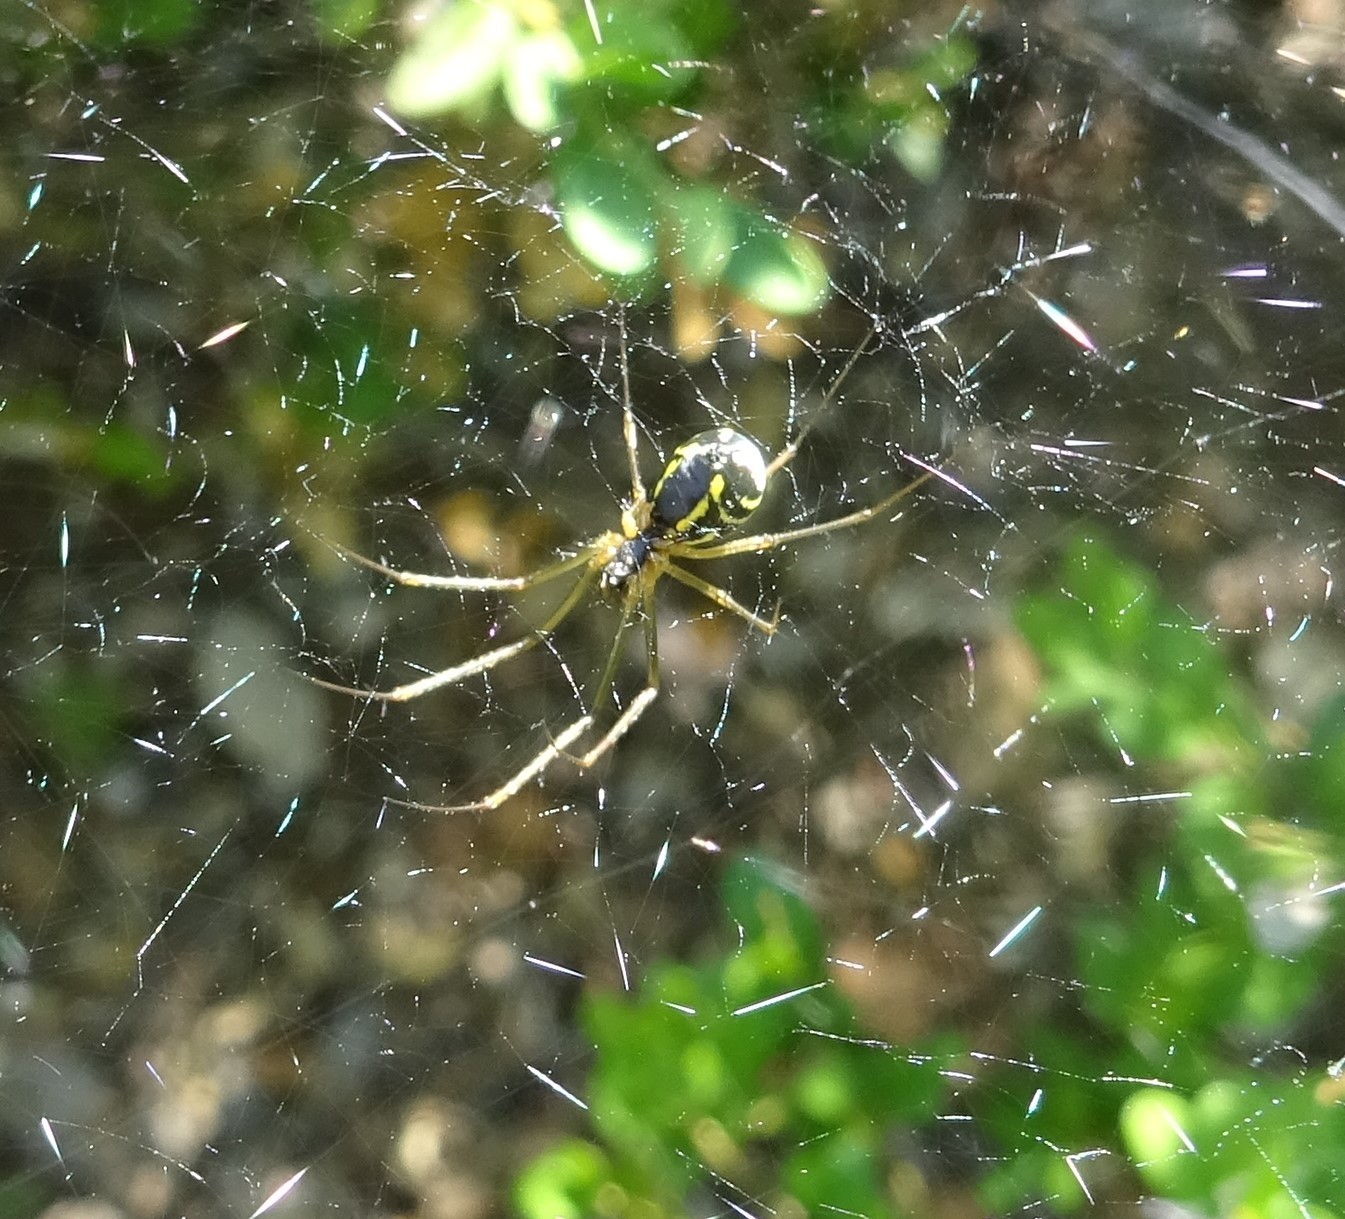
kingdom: Animalia
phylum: Arthropoda
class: Arachnida
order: Araneae
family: Linyphiidae
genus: Neriene
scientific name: Neriene radiata
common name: Filmy dome spider
